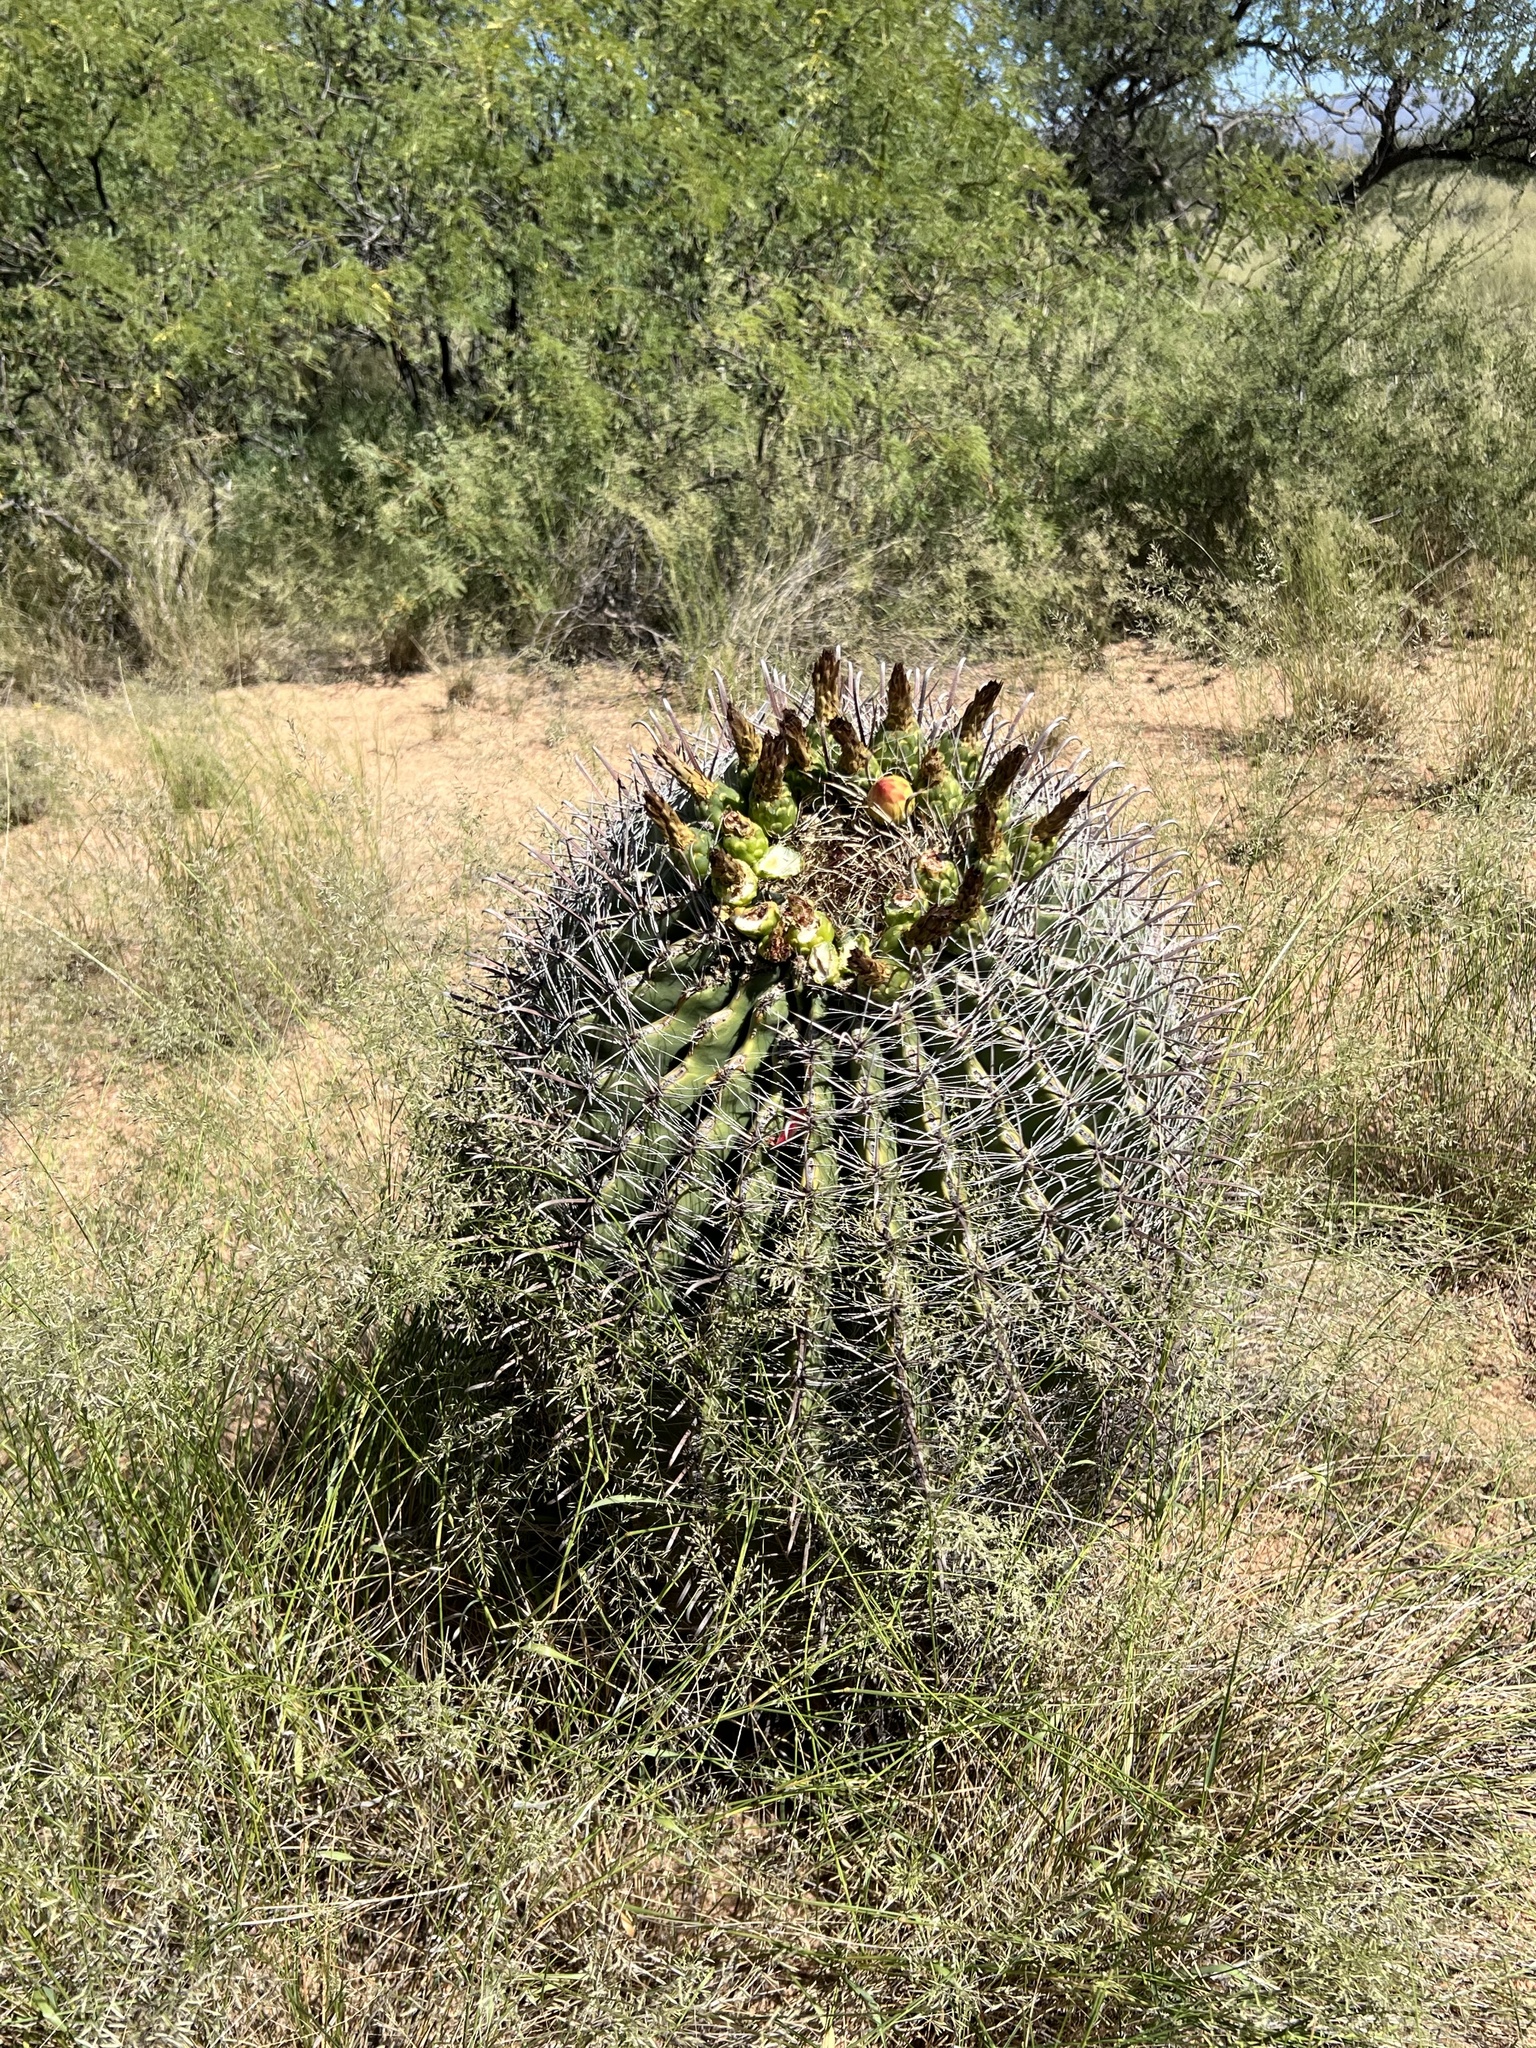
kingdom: Plantae
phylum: Tracheophyta
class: Magnoliopsida
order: Caryophyllales
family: Cactaceae
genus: Ferocactus
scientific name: Ferocactus wislizeni
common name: Candy barrel cactus
